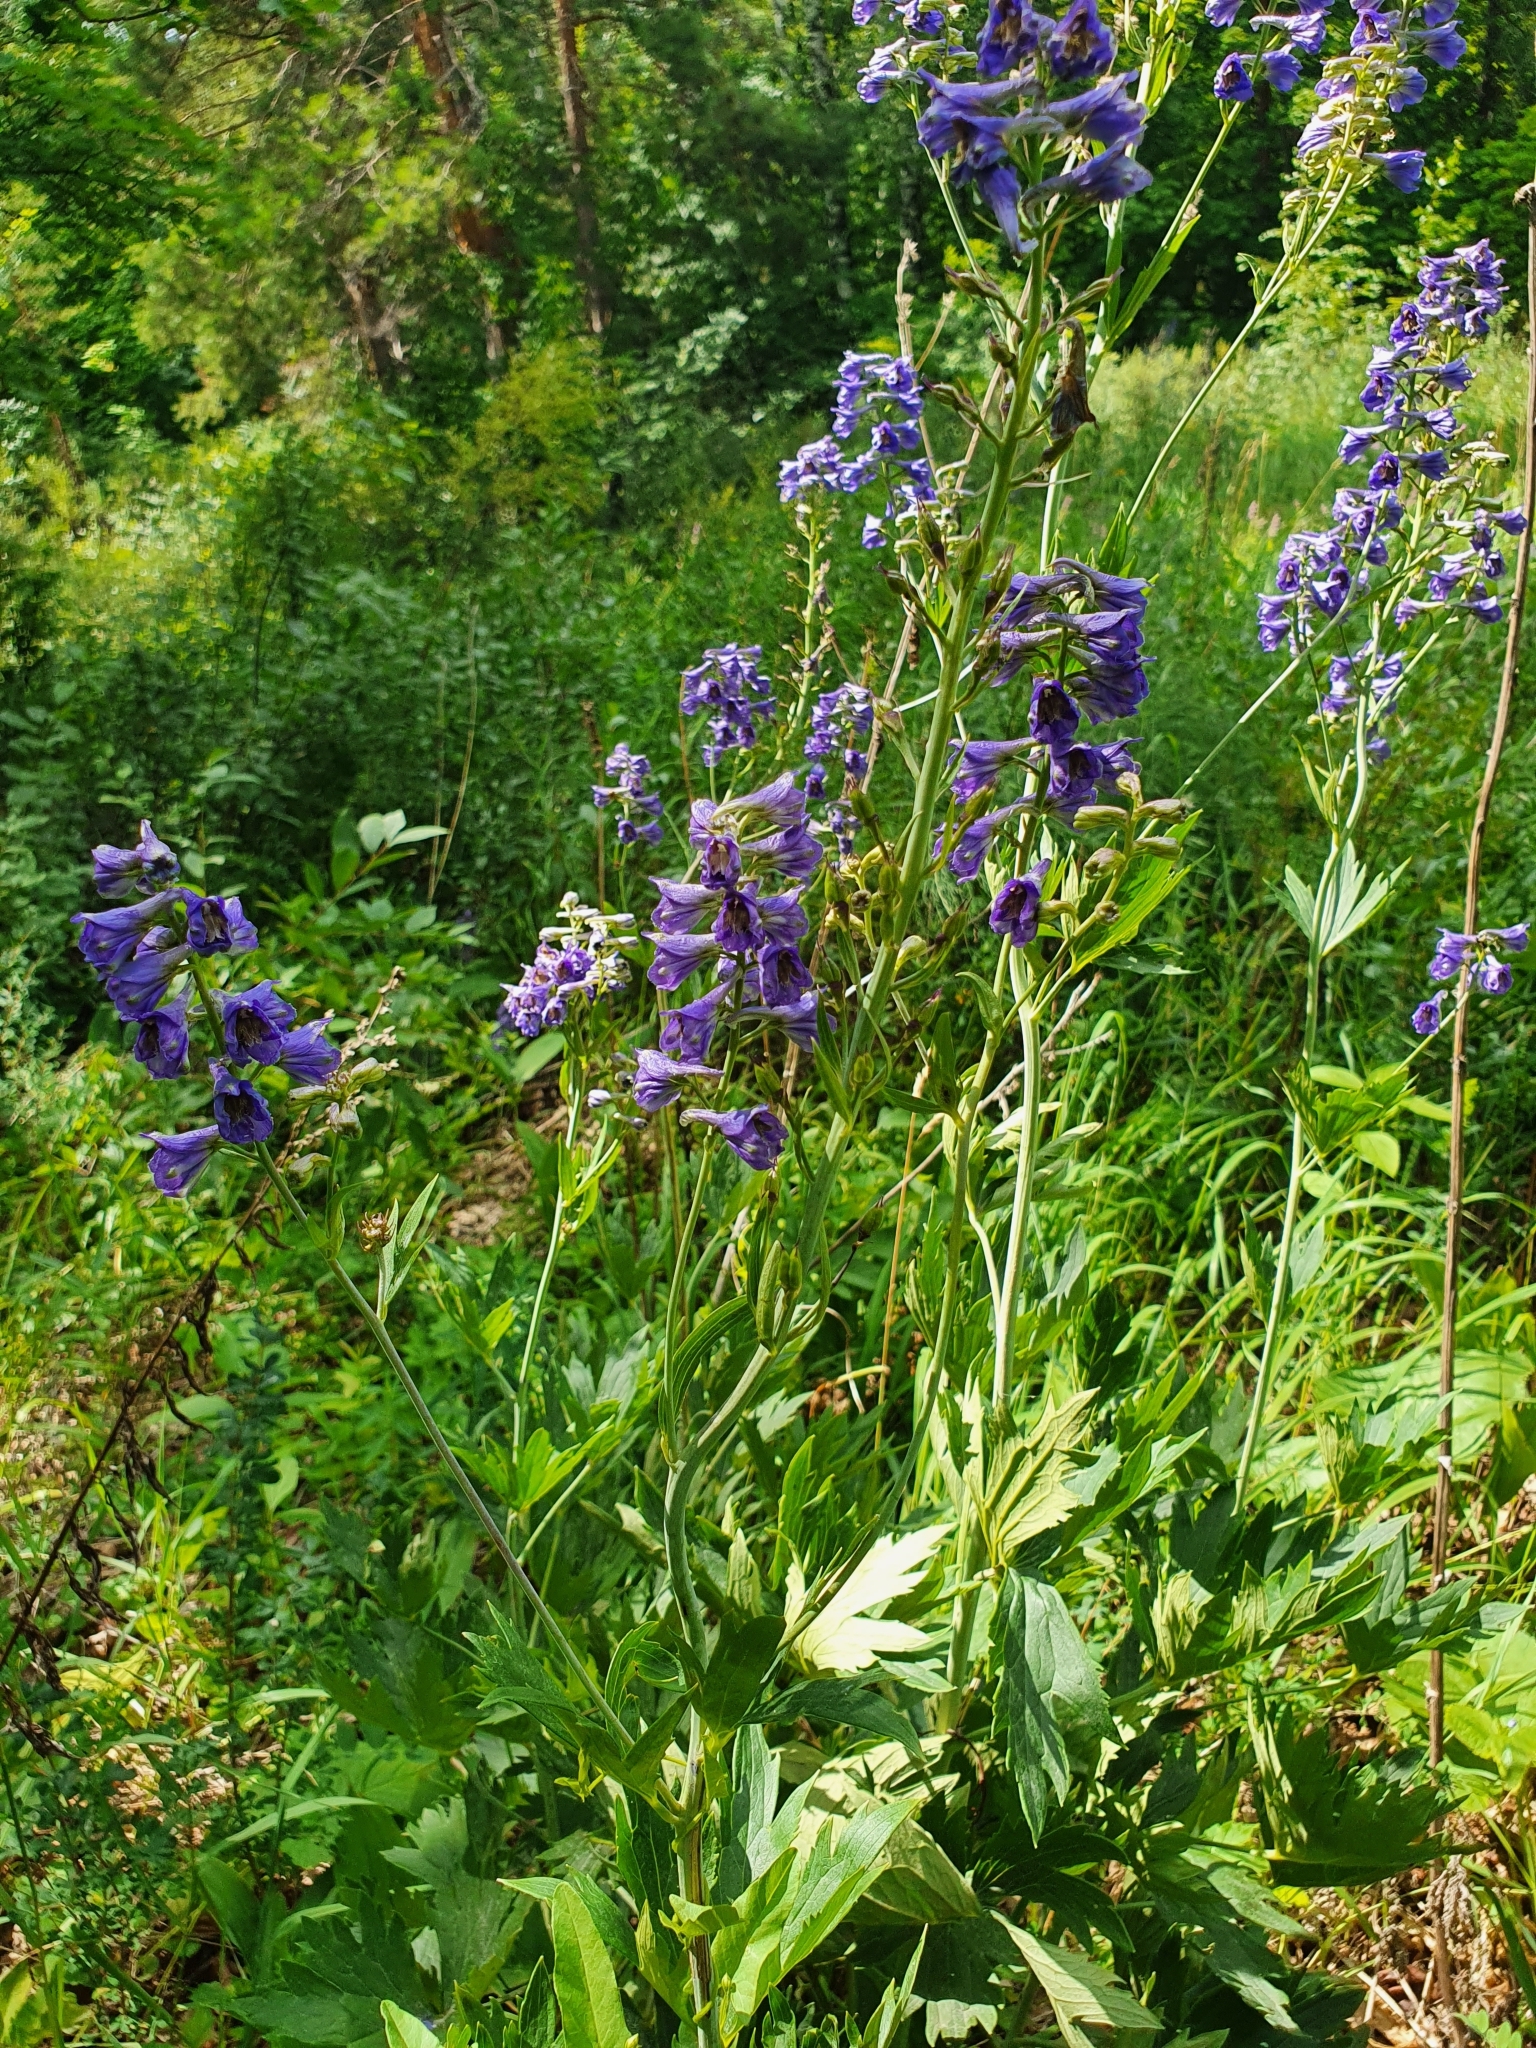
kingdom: Plantae
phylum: Tracheophyta
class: Magnoliopsida
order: Ranunculales
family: Ranunculaceae
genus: Delphinium
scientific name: Delphinium cuneatum
